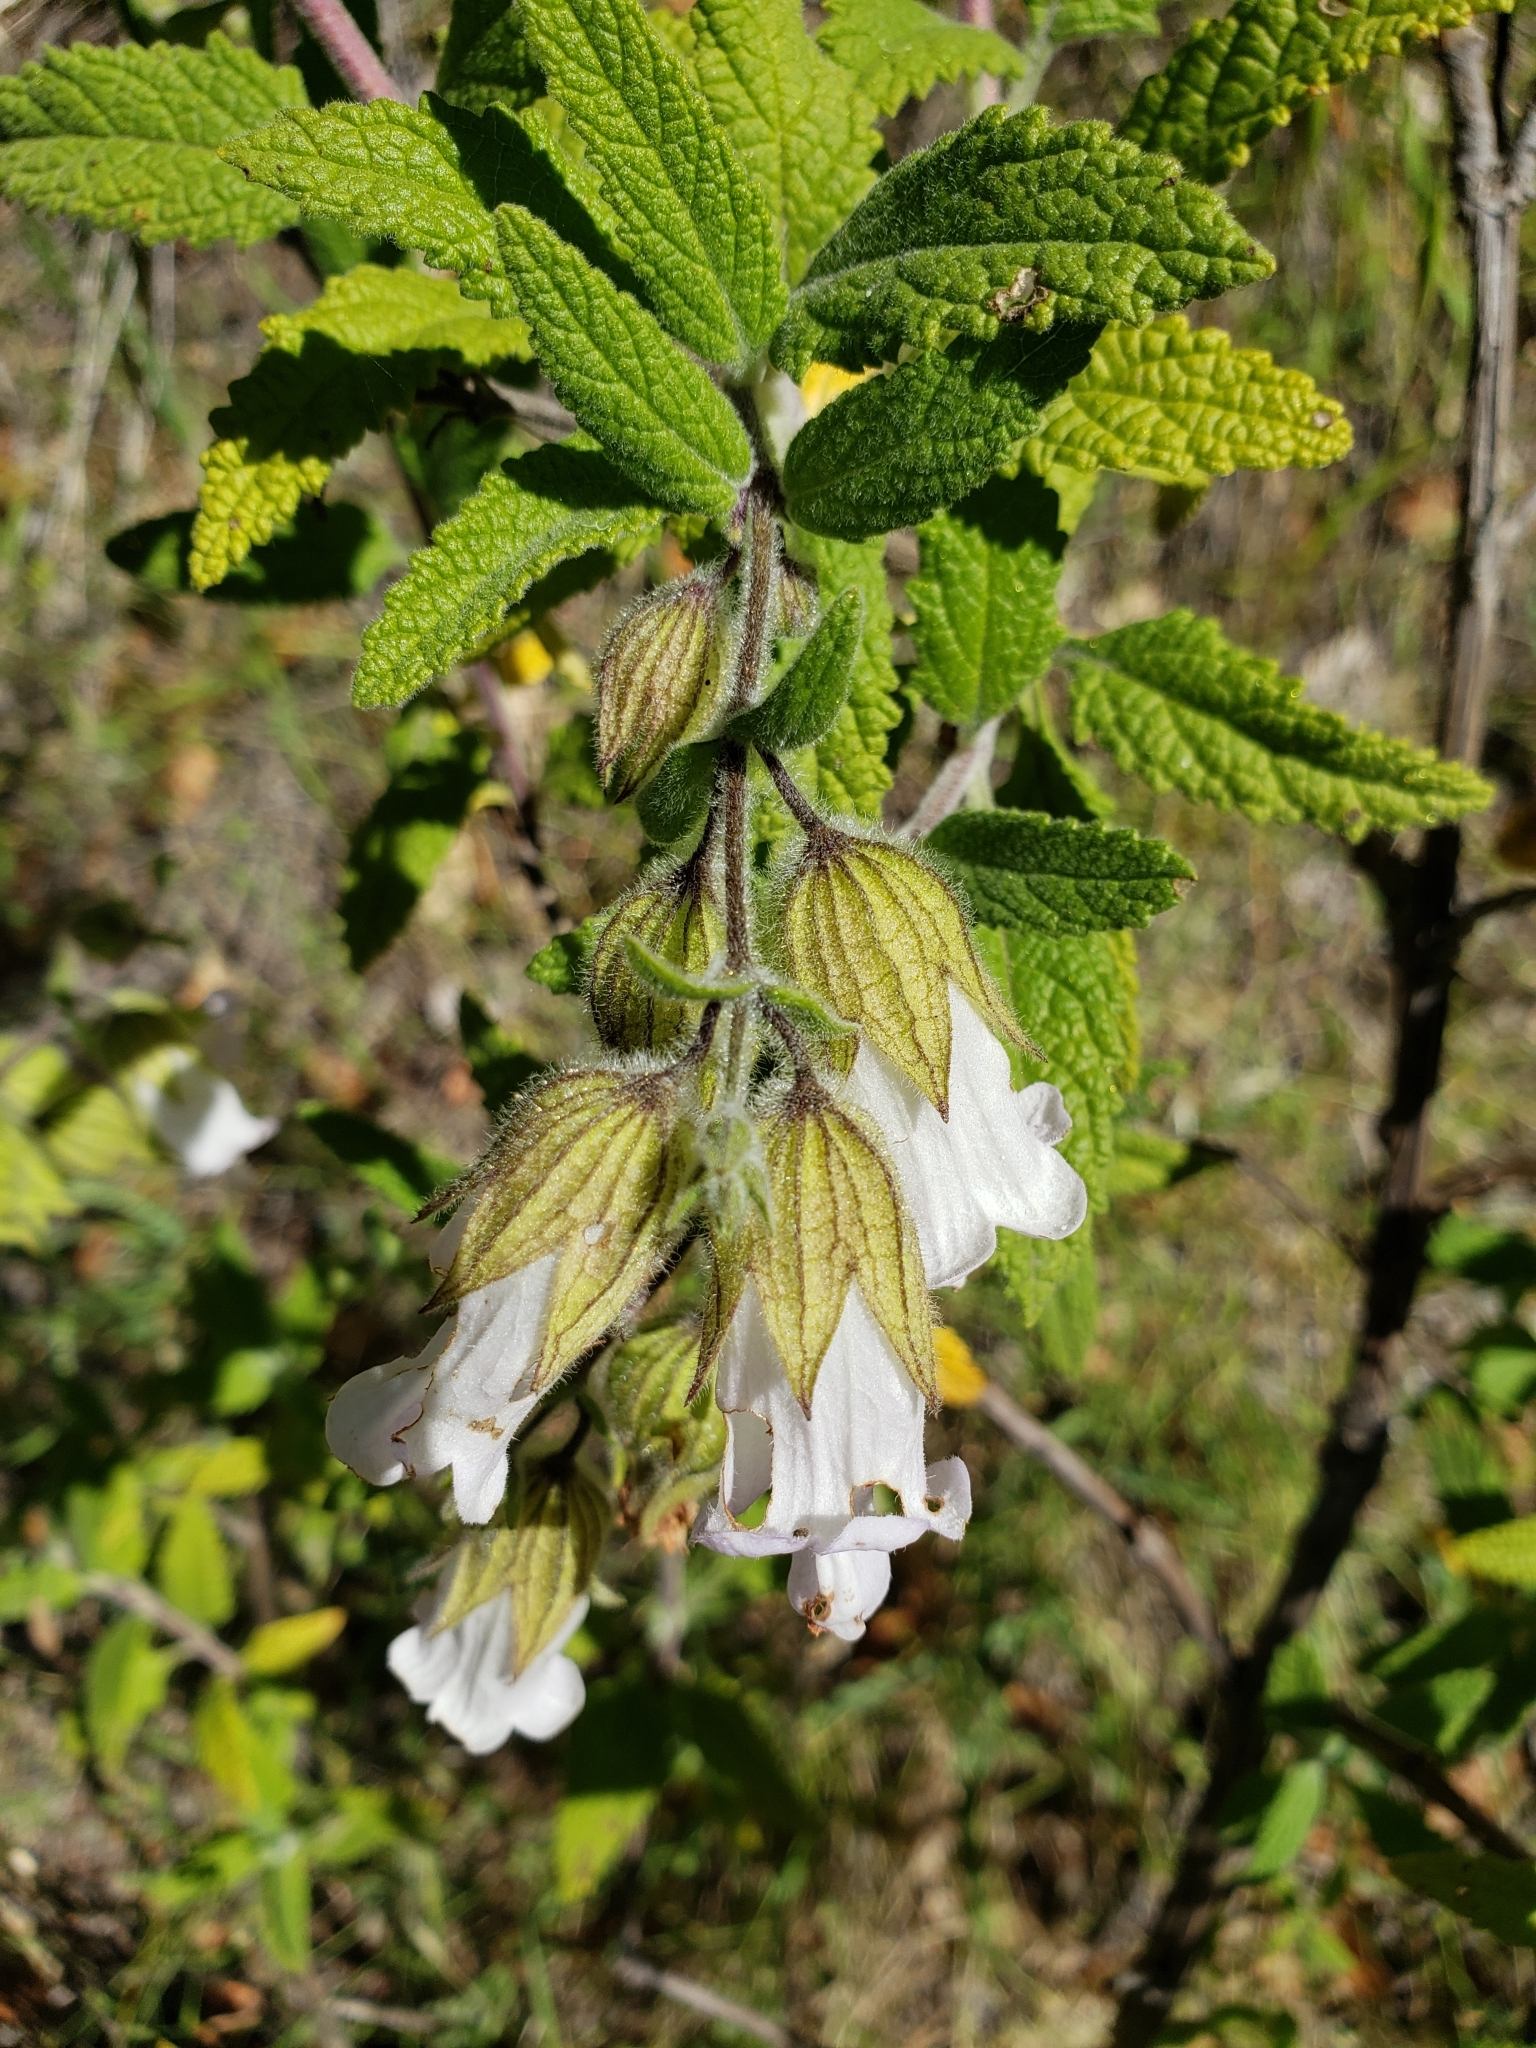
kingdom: Plantae
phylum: Tracheophyta
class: Magnoliopsida
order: Lamiales
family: Lamiaceae
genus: Lepechinia
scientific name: Lepechinia calycina
